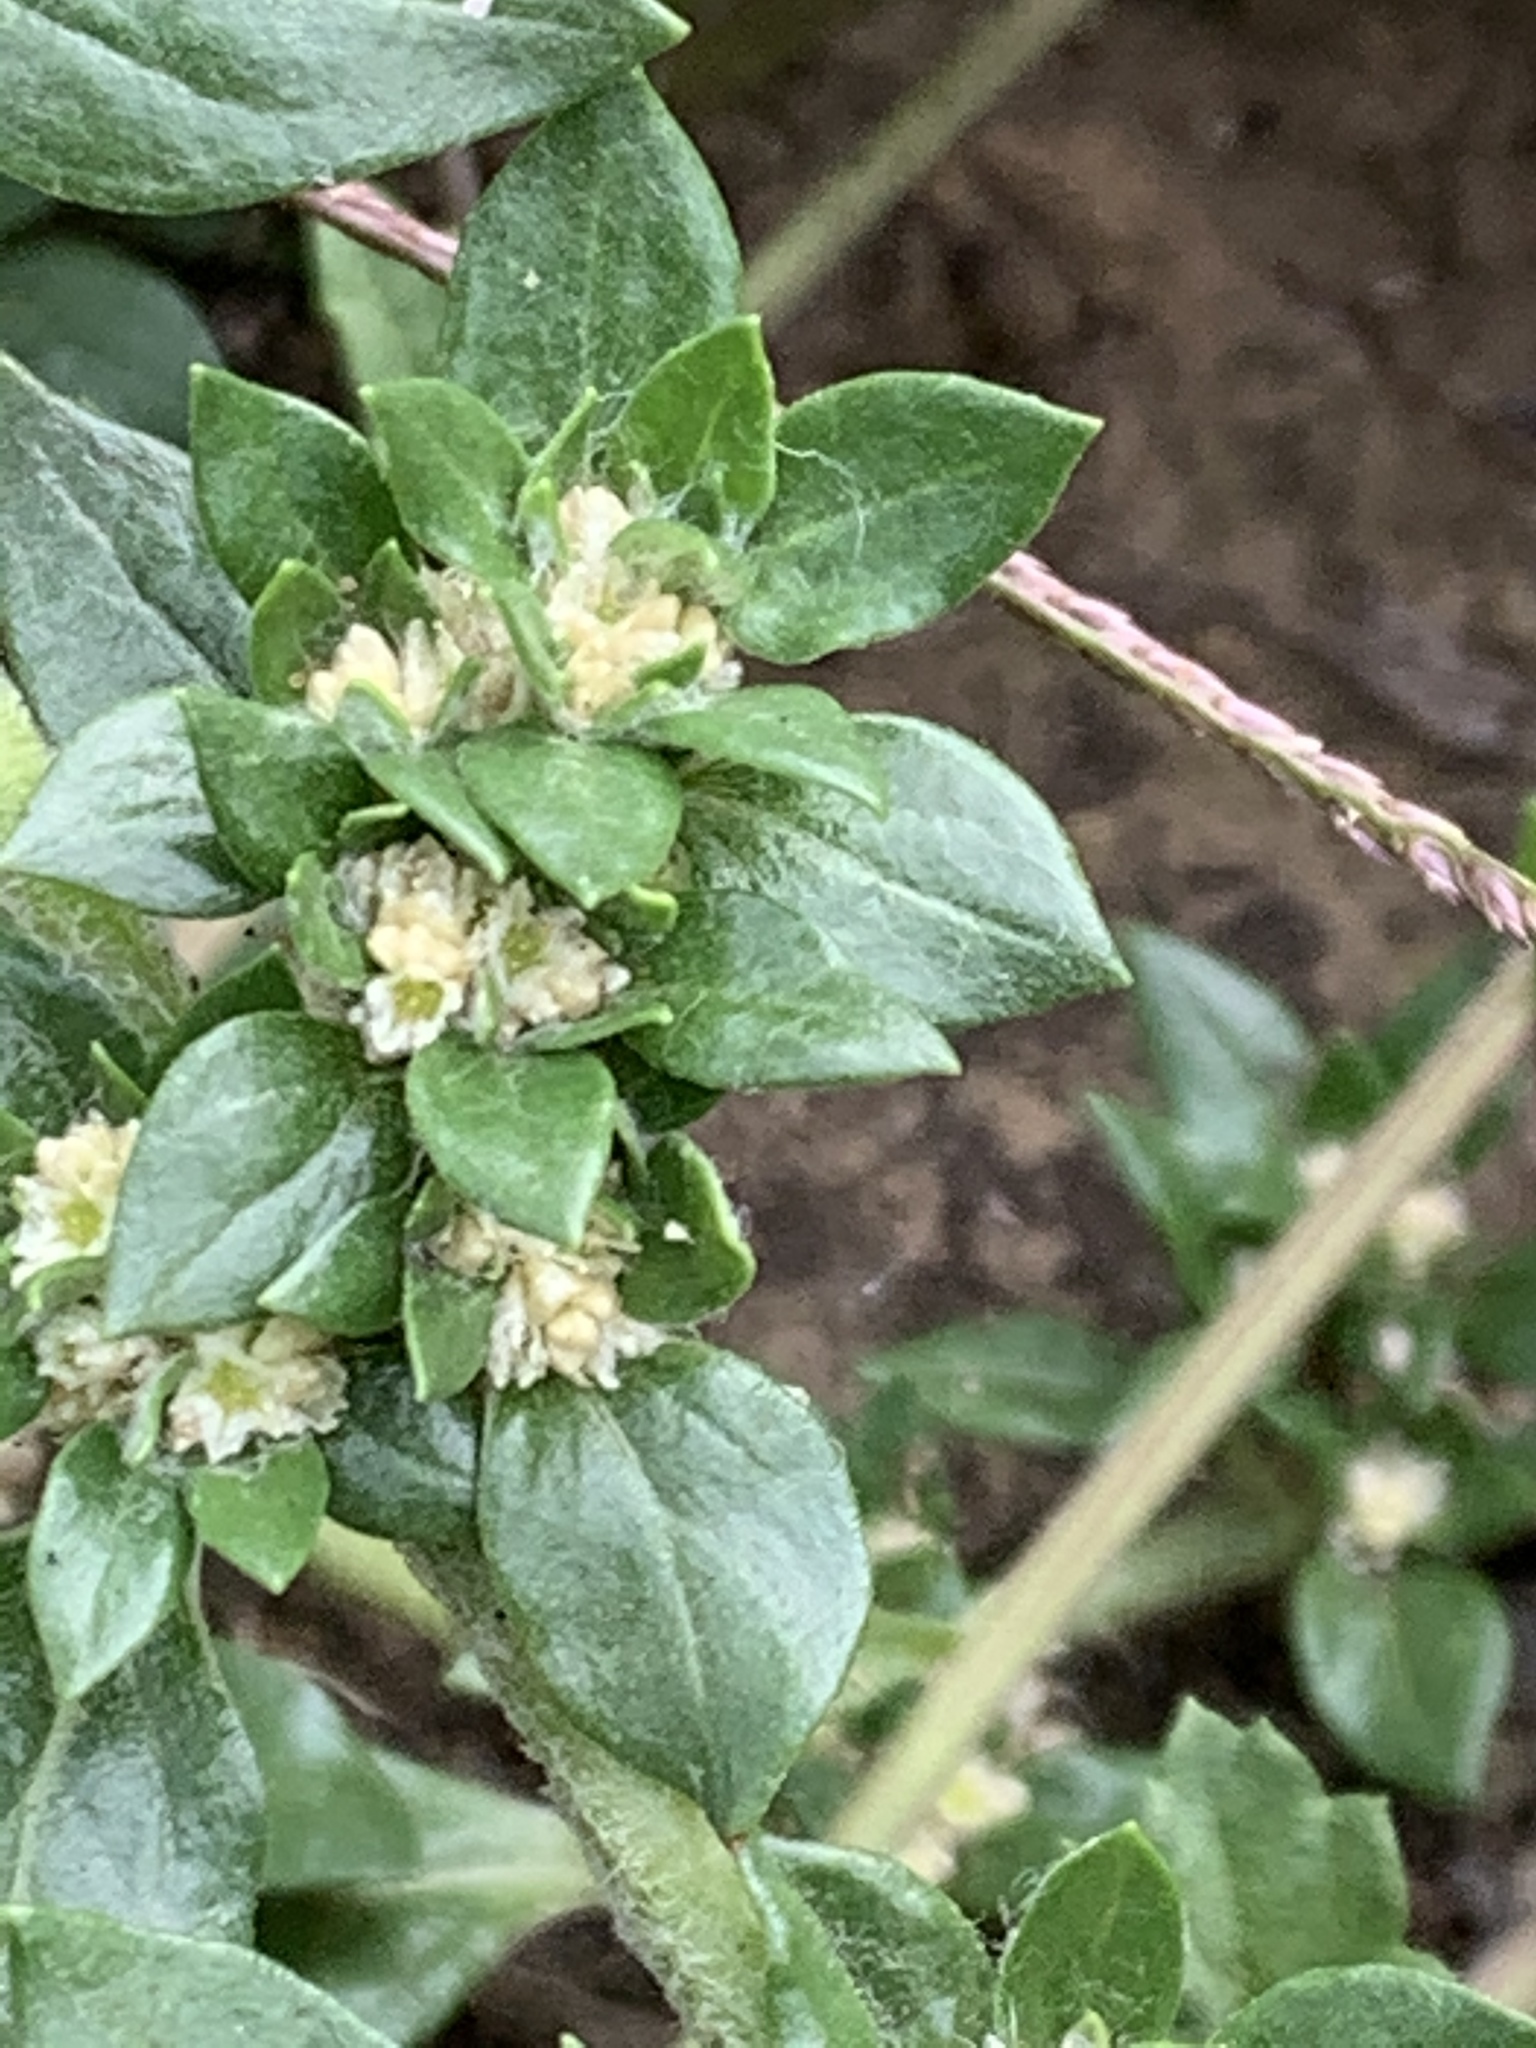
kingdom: Plantae
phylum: Tracheophyta
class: Magnoliopsida
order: Caryophyllales
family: Amaranthaceae
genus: Guilleminea
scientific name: Guilleminea densa
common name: Small matweed
